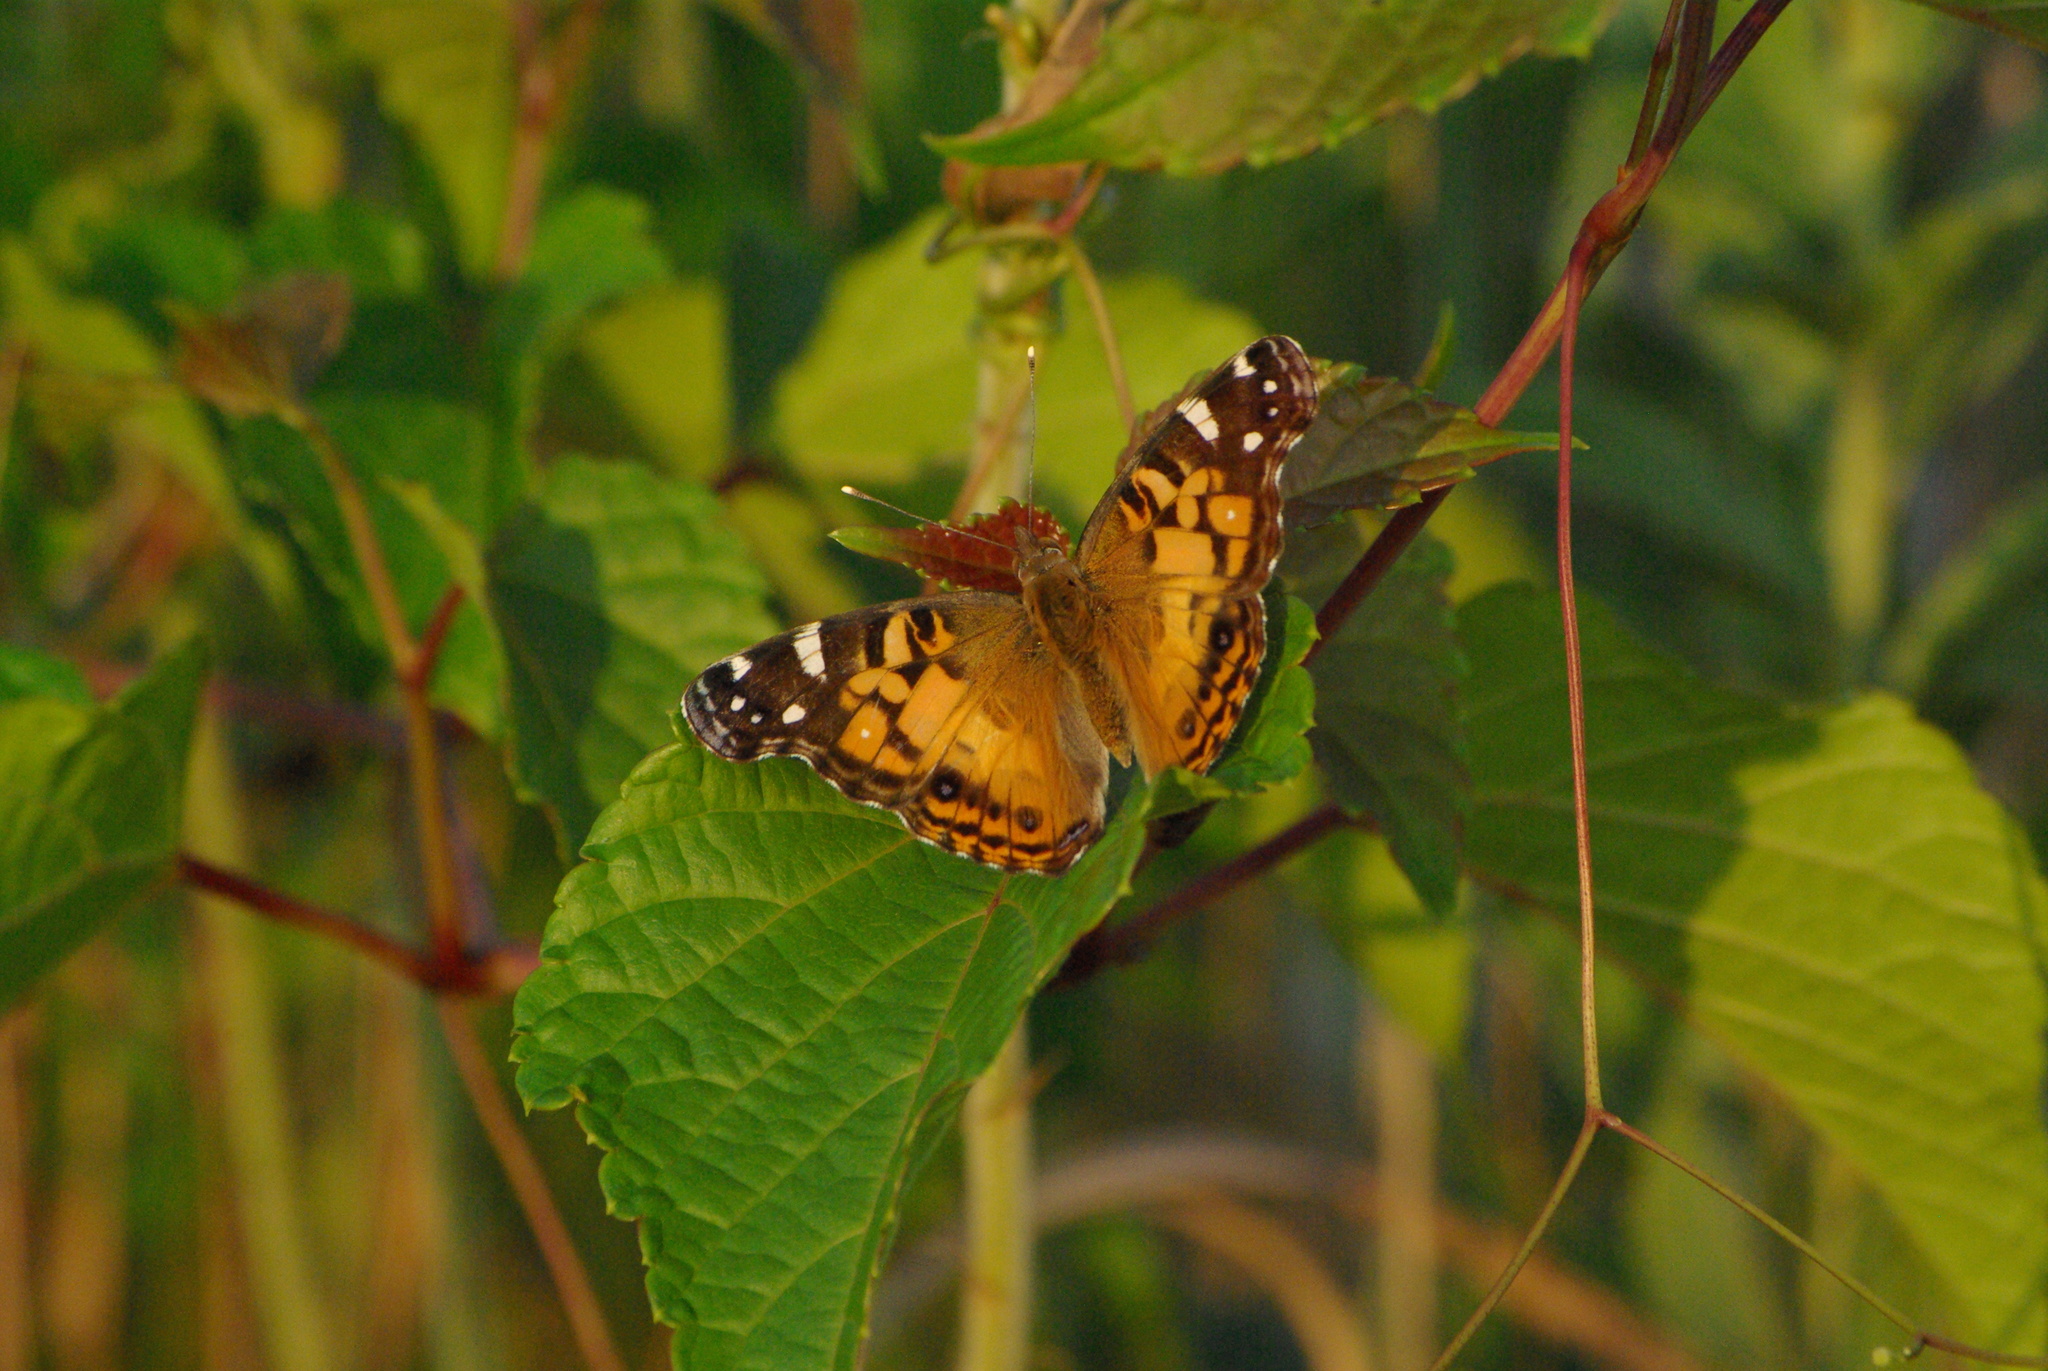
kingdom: Animalia
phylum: Arthropoda
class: Insecta
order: Lepidoptera
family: Nymphalidae
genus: Vanessa
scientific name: Vanessa virginiensis
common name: American lady
